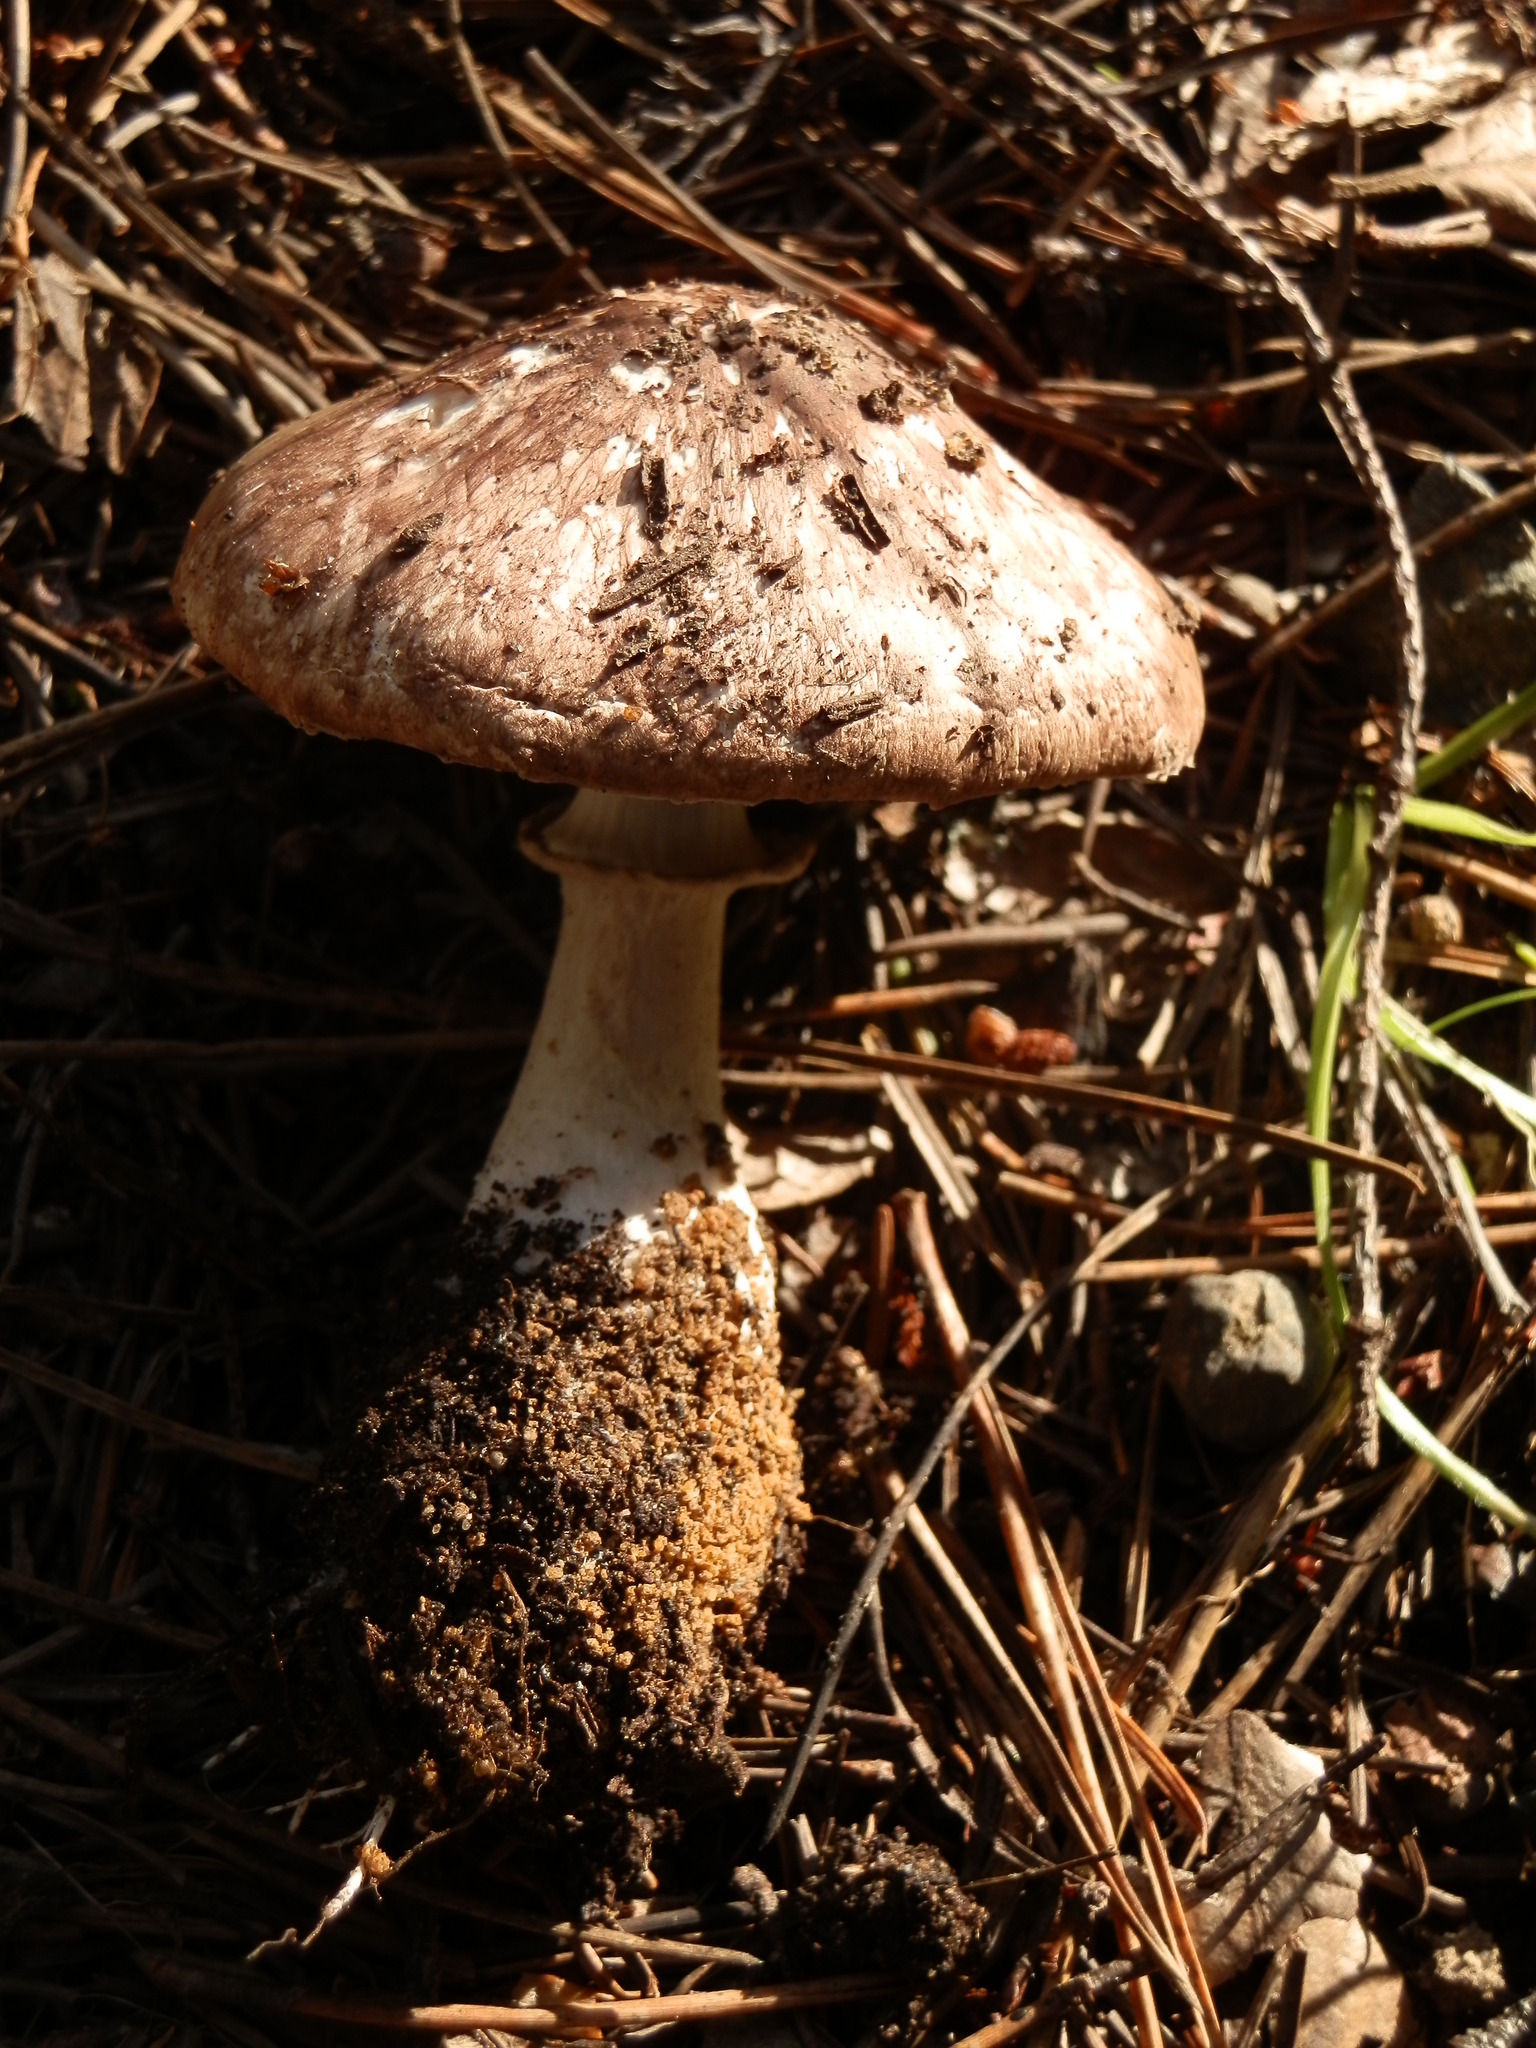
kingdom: Fungi
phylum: Basidiomycota
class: Agaricomycetes
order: Agaricales
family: Agaricaceae
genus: Agaricus
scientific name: Agaricus subrutilescens
